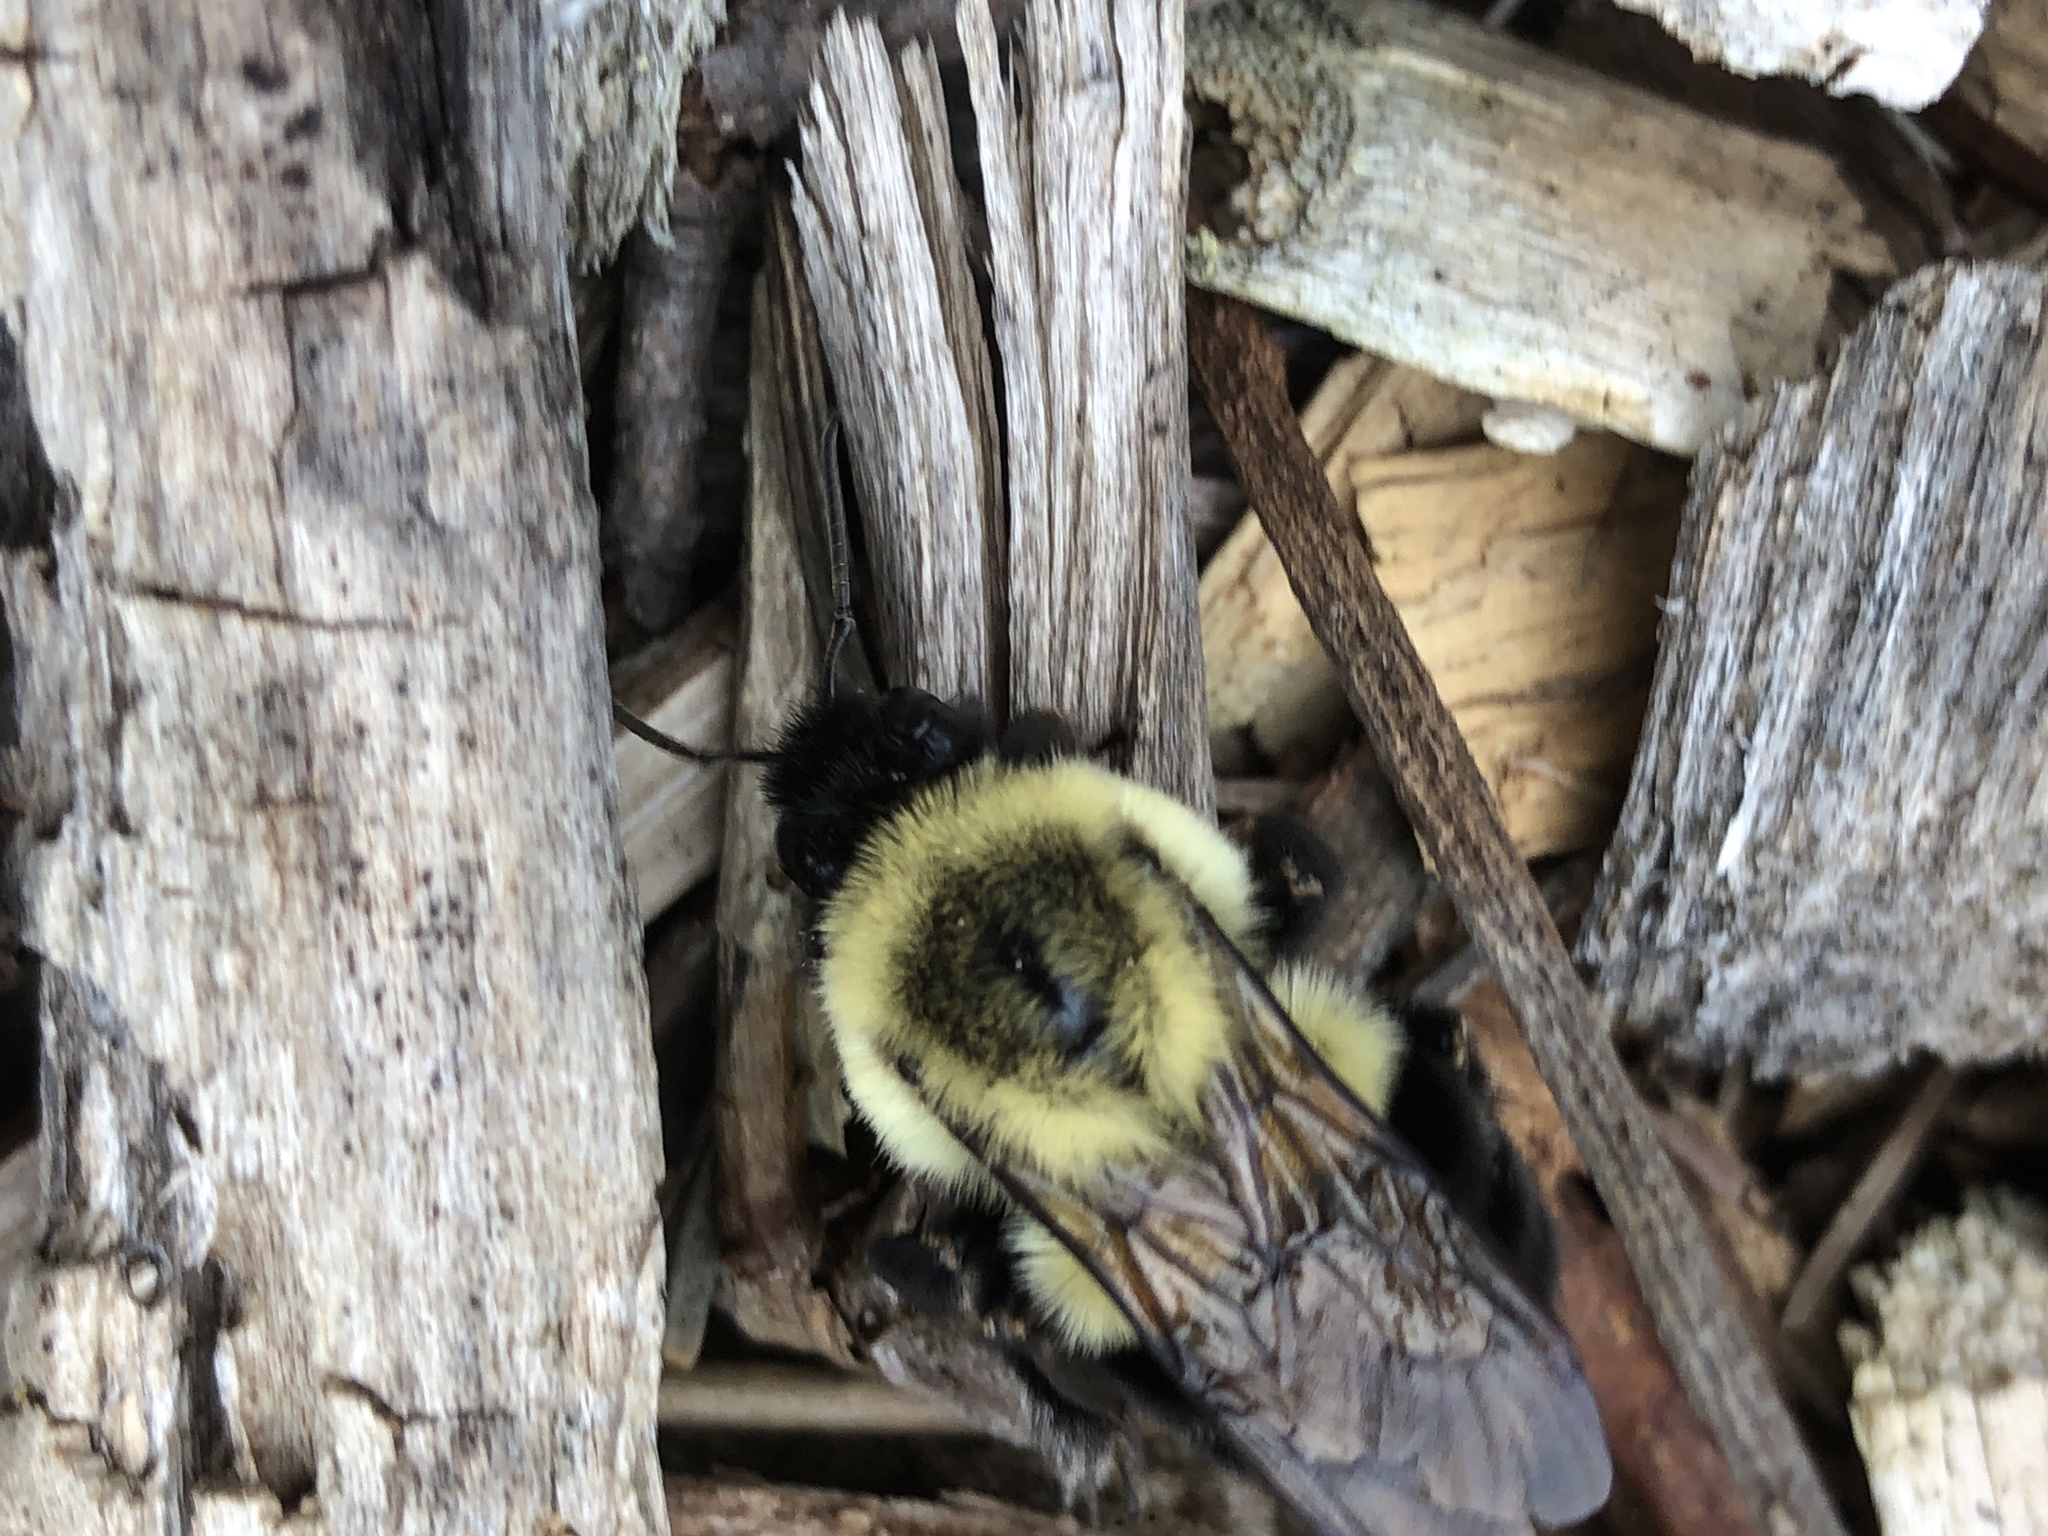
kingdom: Animalia
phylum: Arthropoda
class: Insecta
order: Hymenoptera
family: Apidae
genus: Bombus
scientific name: Bombus impatiens
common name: Common eastern bumble bee
